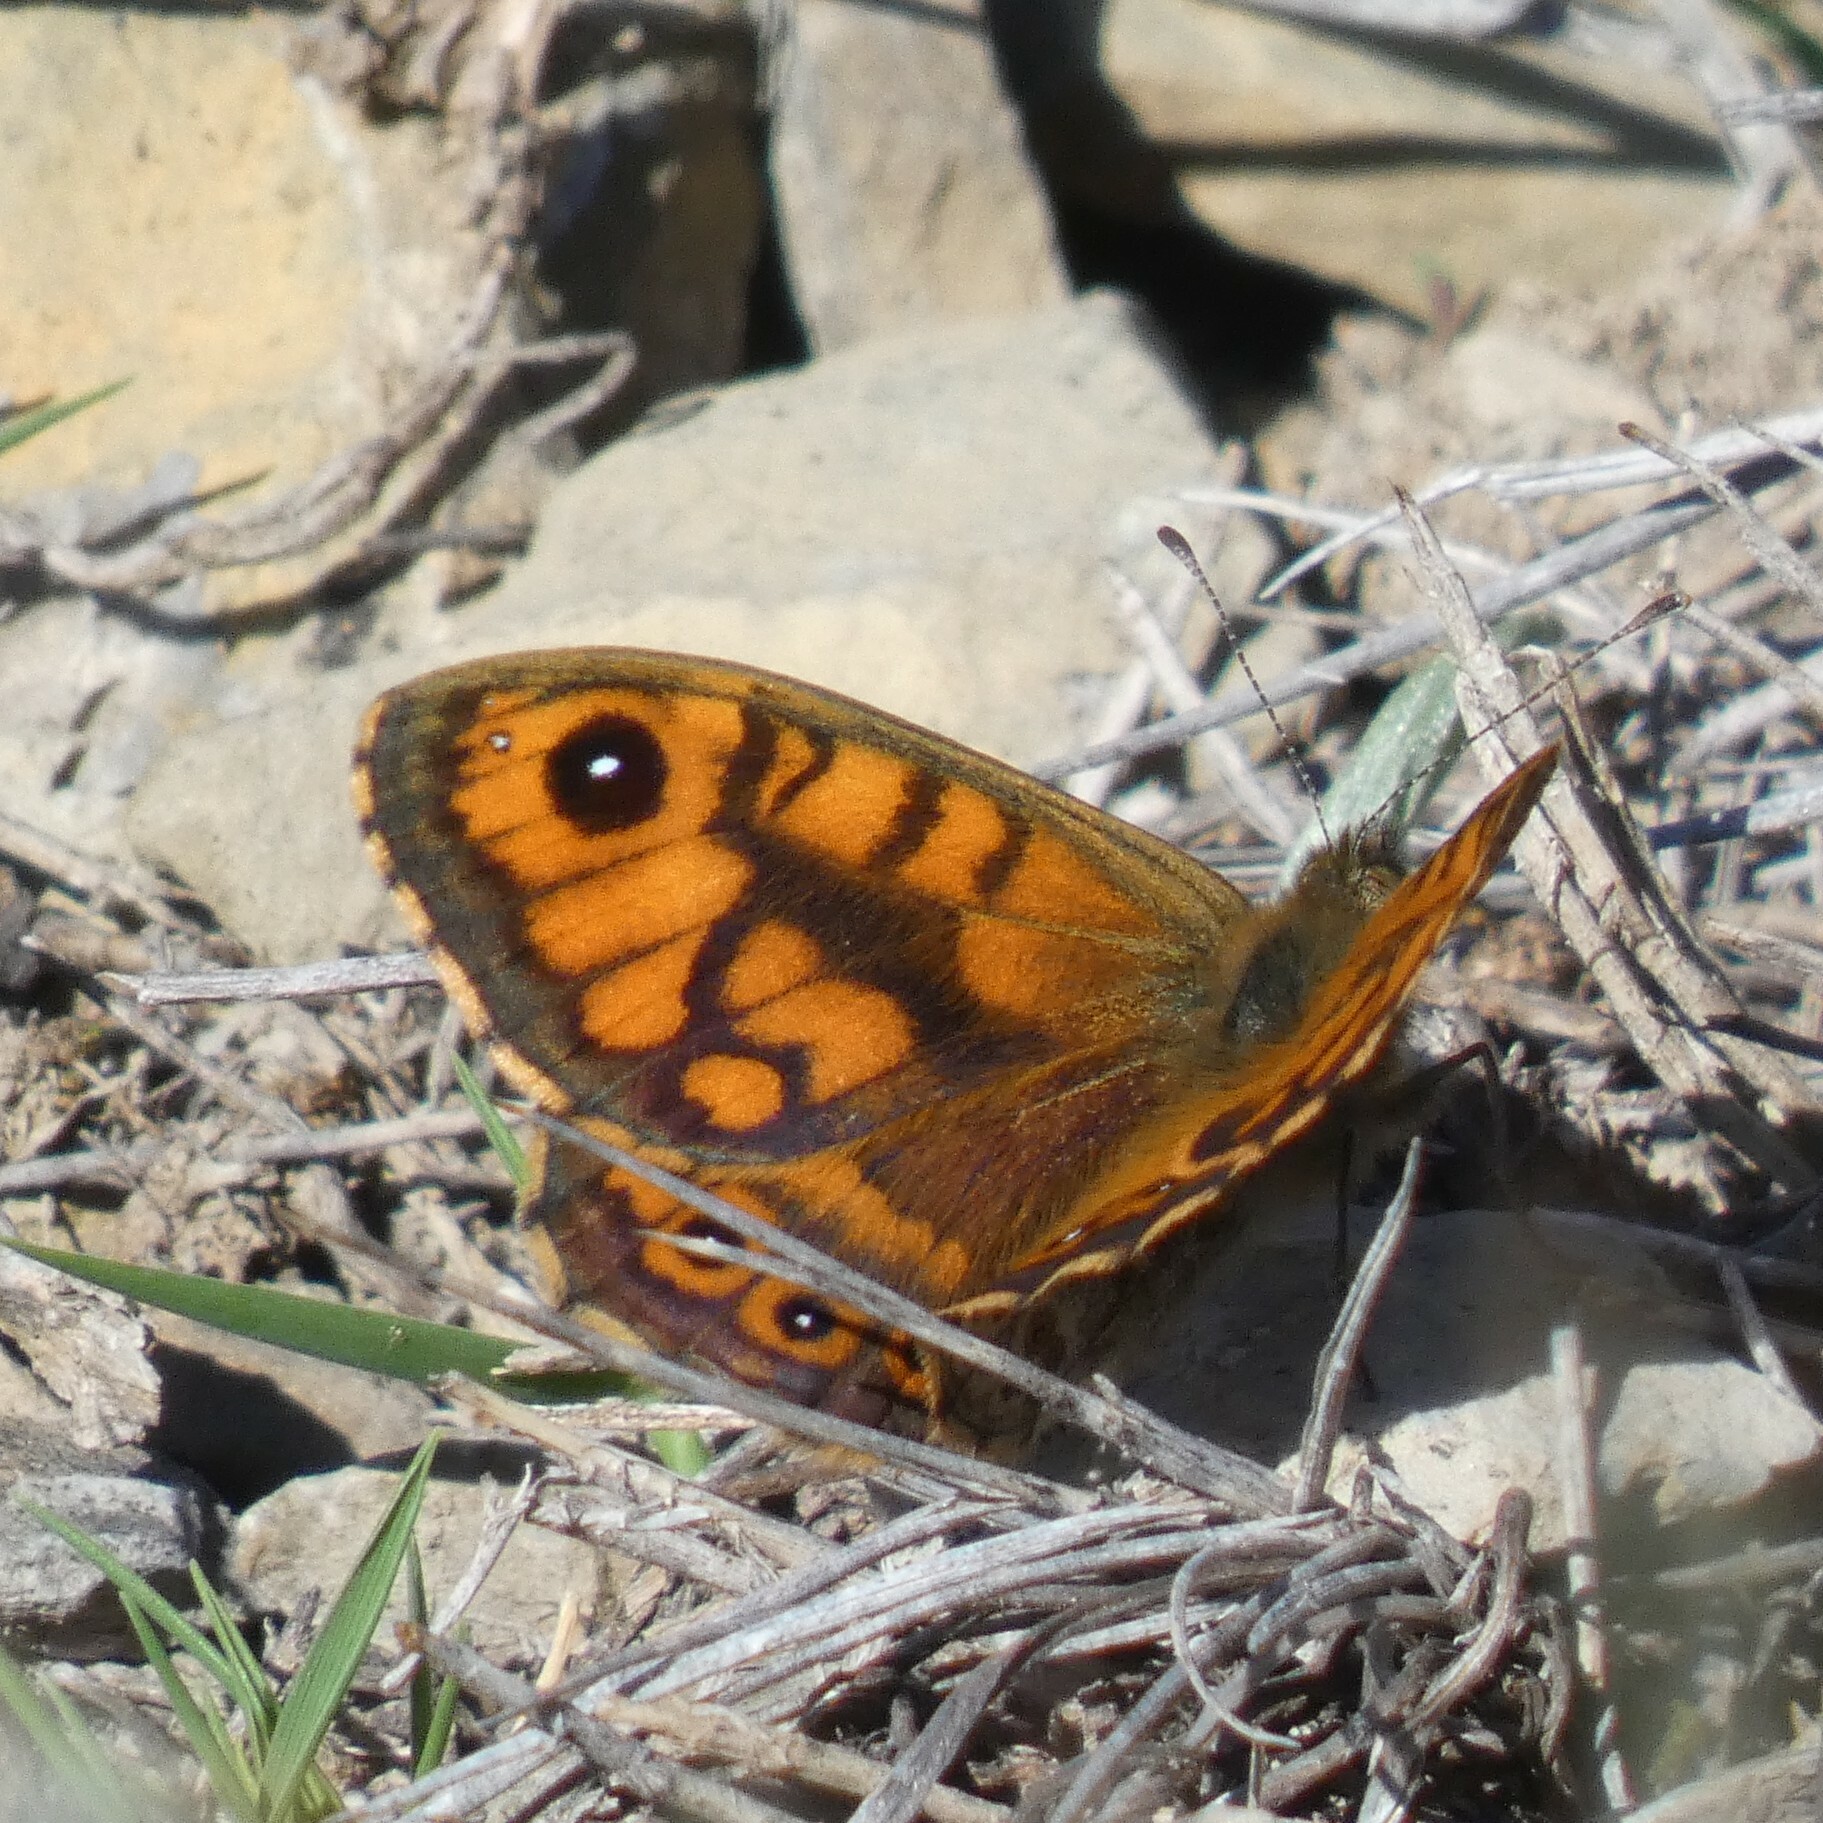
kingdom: Animalia
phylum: Arthropoda
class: Insecta
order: Lepidoptera
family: Nymphalidae
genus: Pararge
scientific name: Pararge Lasiommata megera
